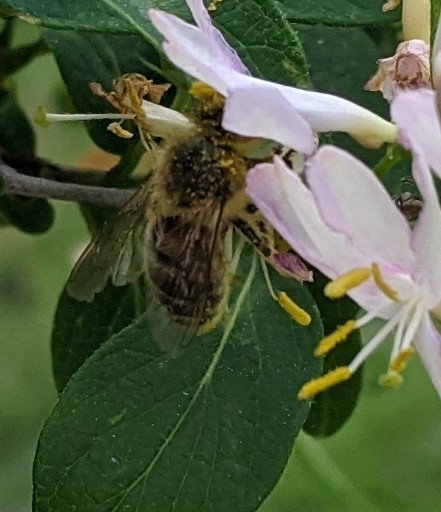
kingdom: Animalia
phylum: Arthropoda
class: Insecta
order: Hymenoptera
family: Apidae
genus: Apis
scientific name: Apis mellifera
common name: Honey bee
